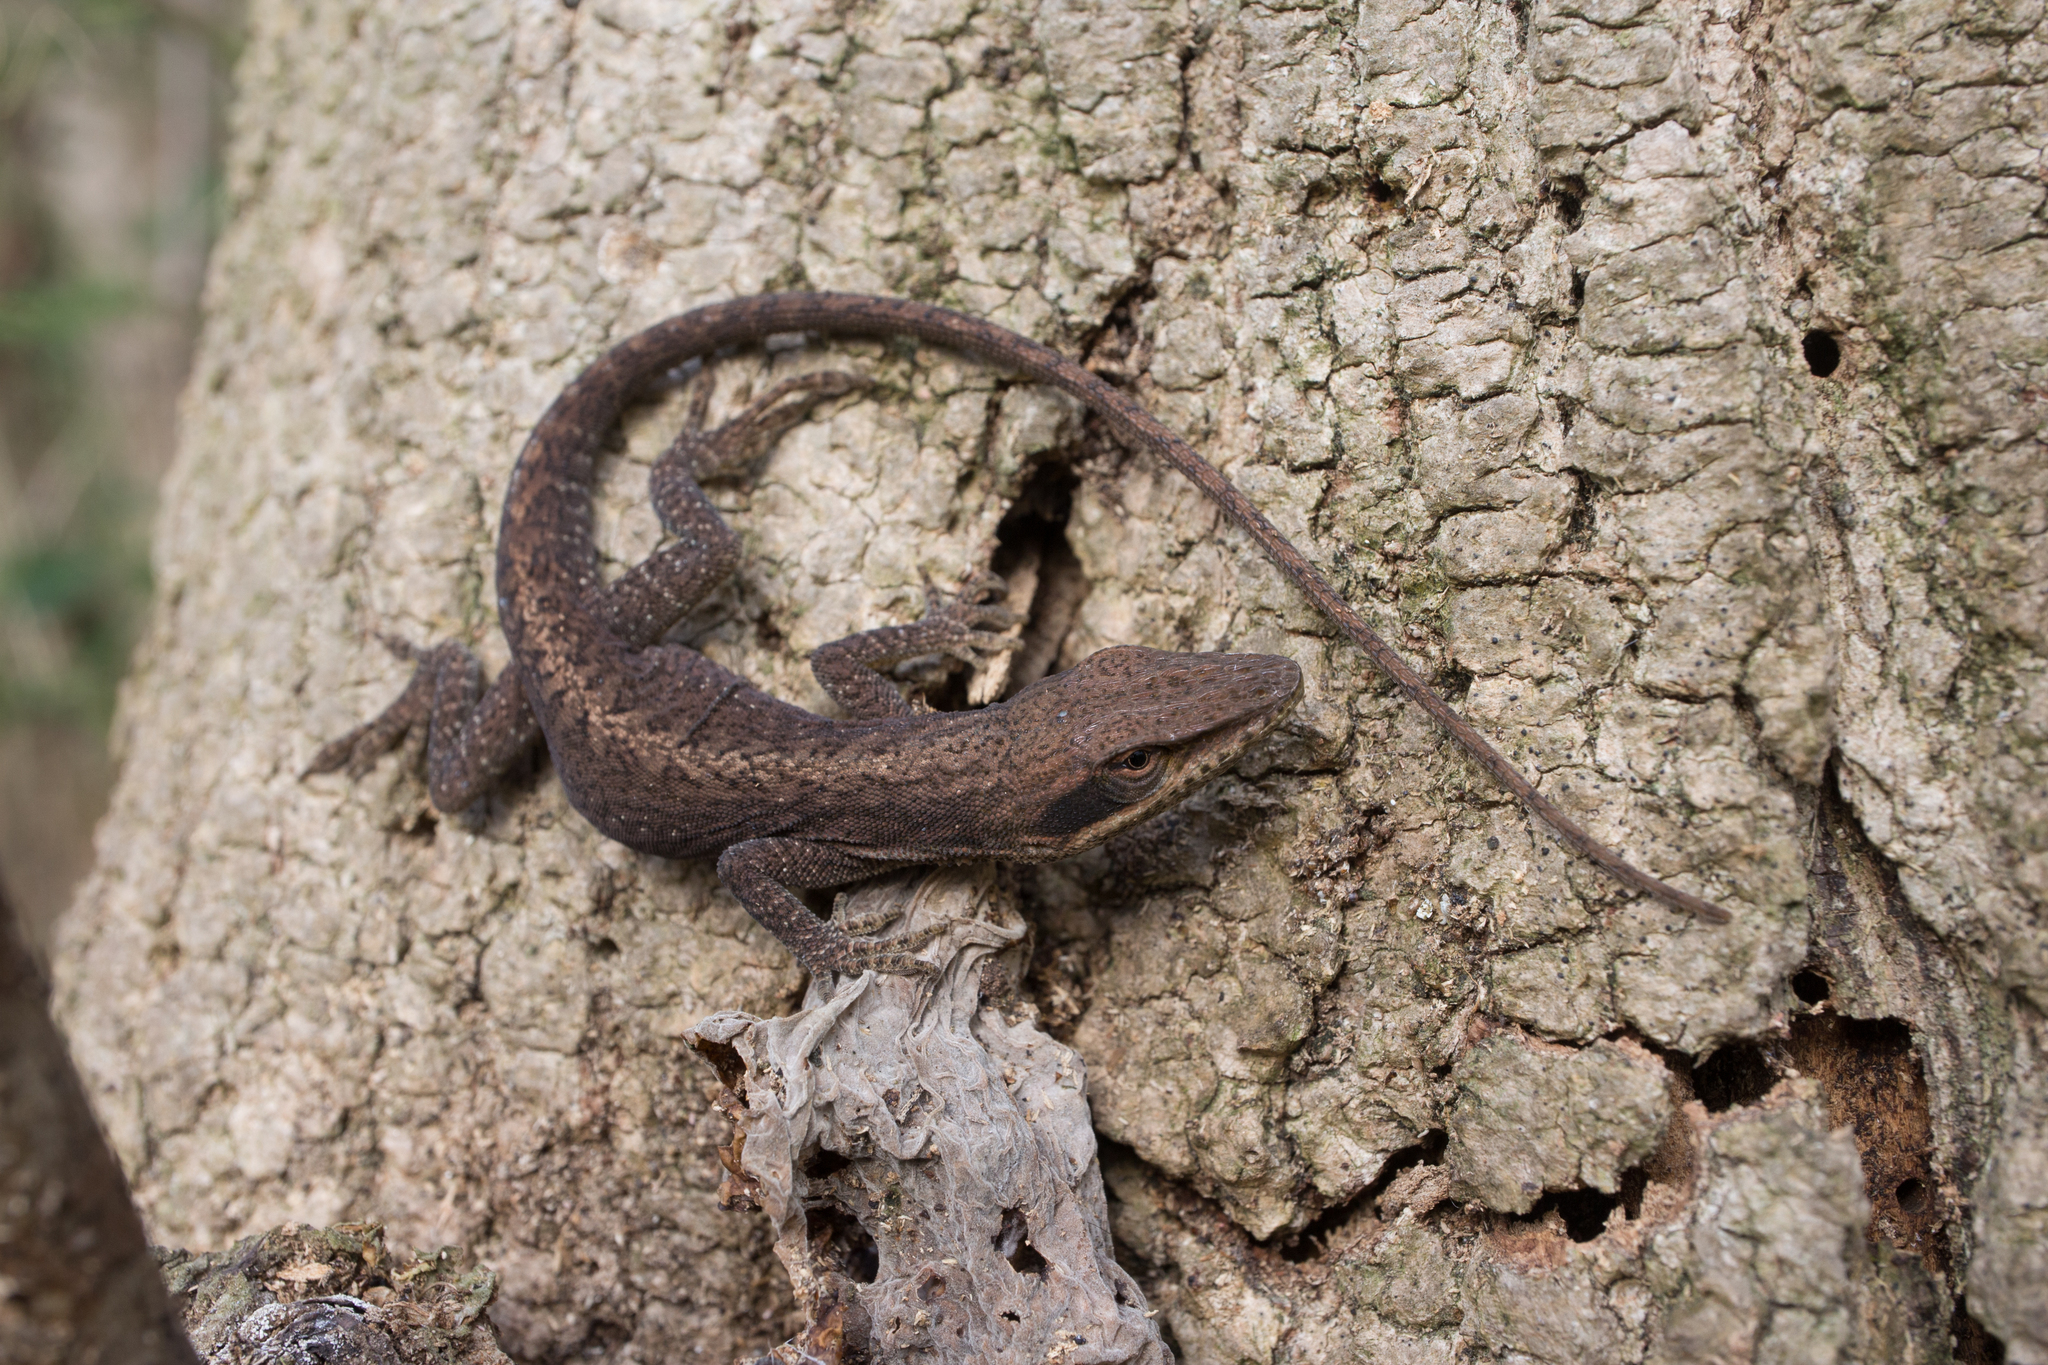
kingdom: Animalia
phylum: Chordata
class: Squamata
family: Dactyloidae
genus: Anolis
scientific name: Anolis carolinensis
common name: Green anole
